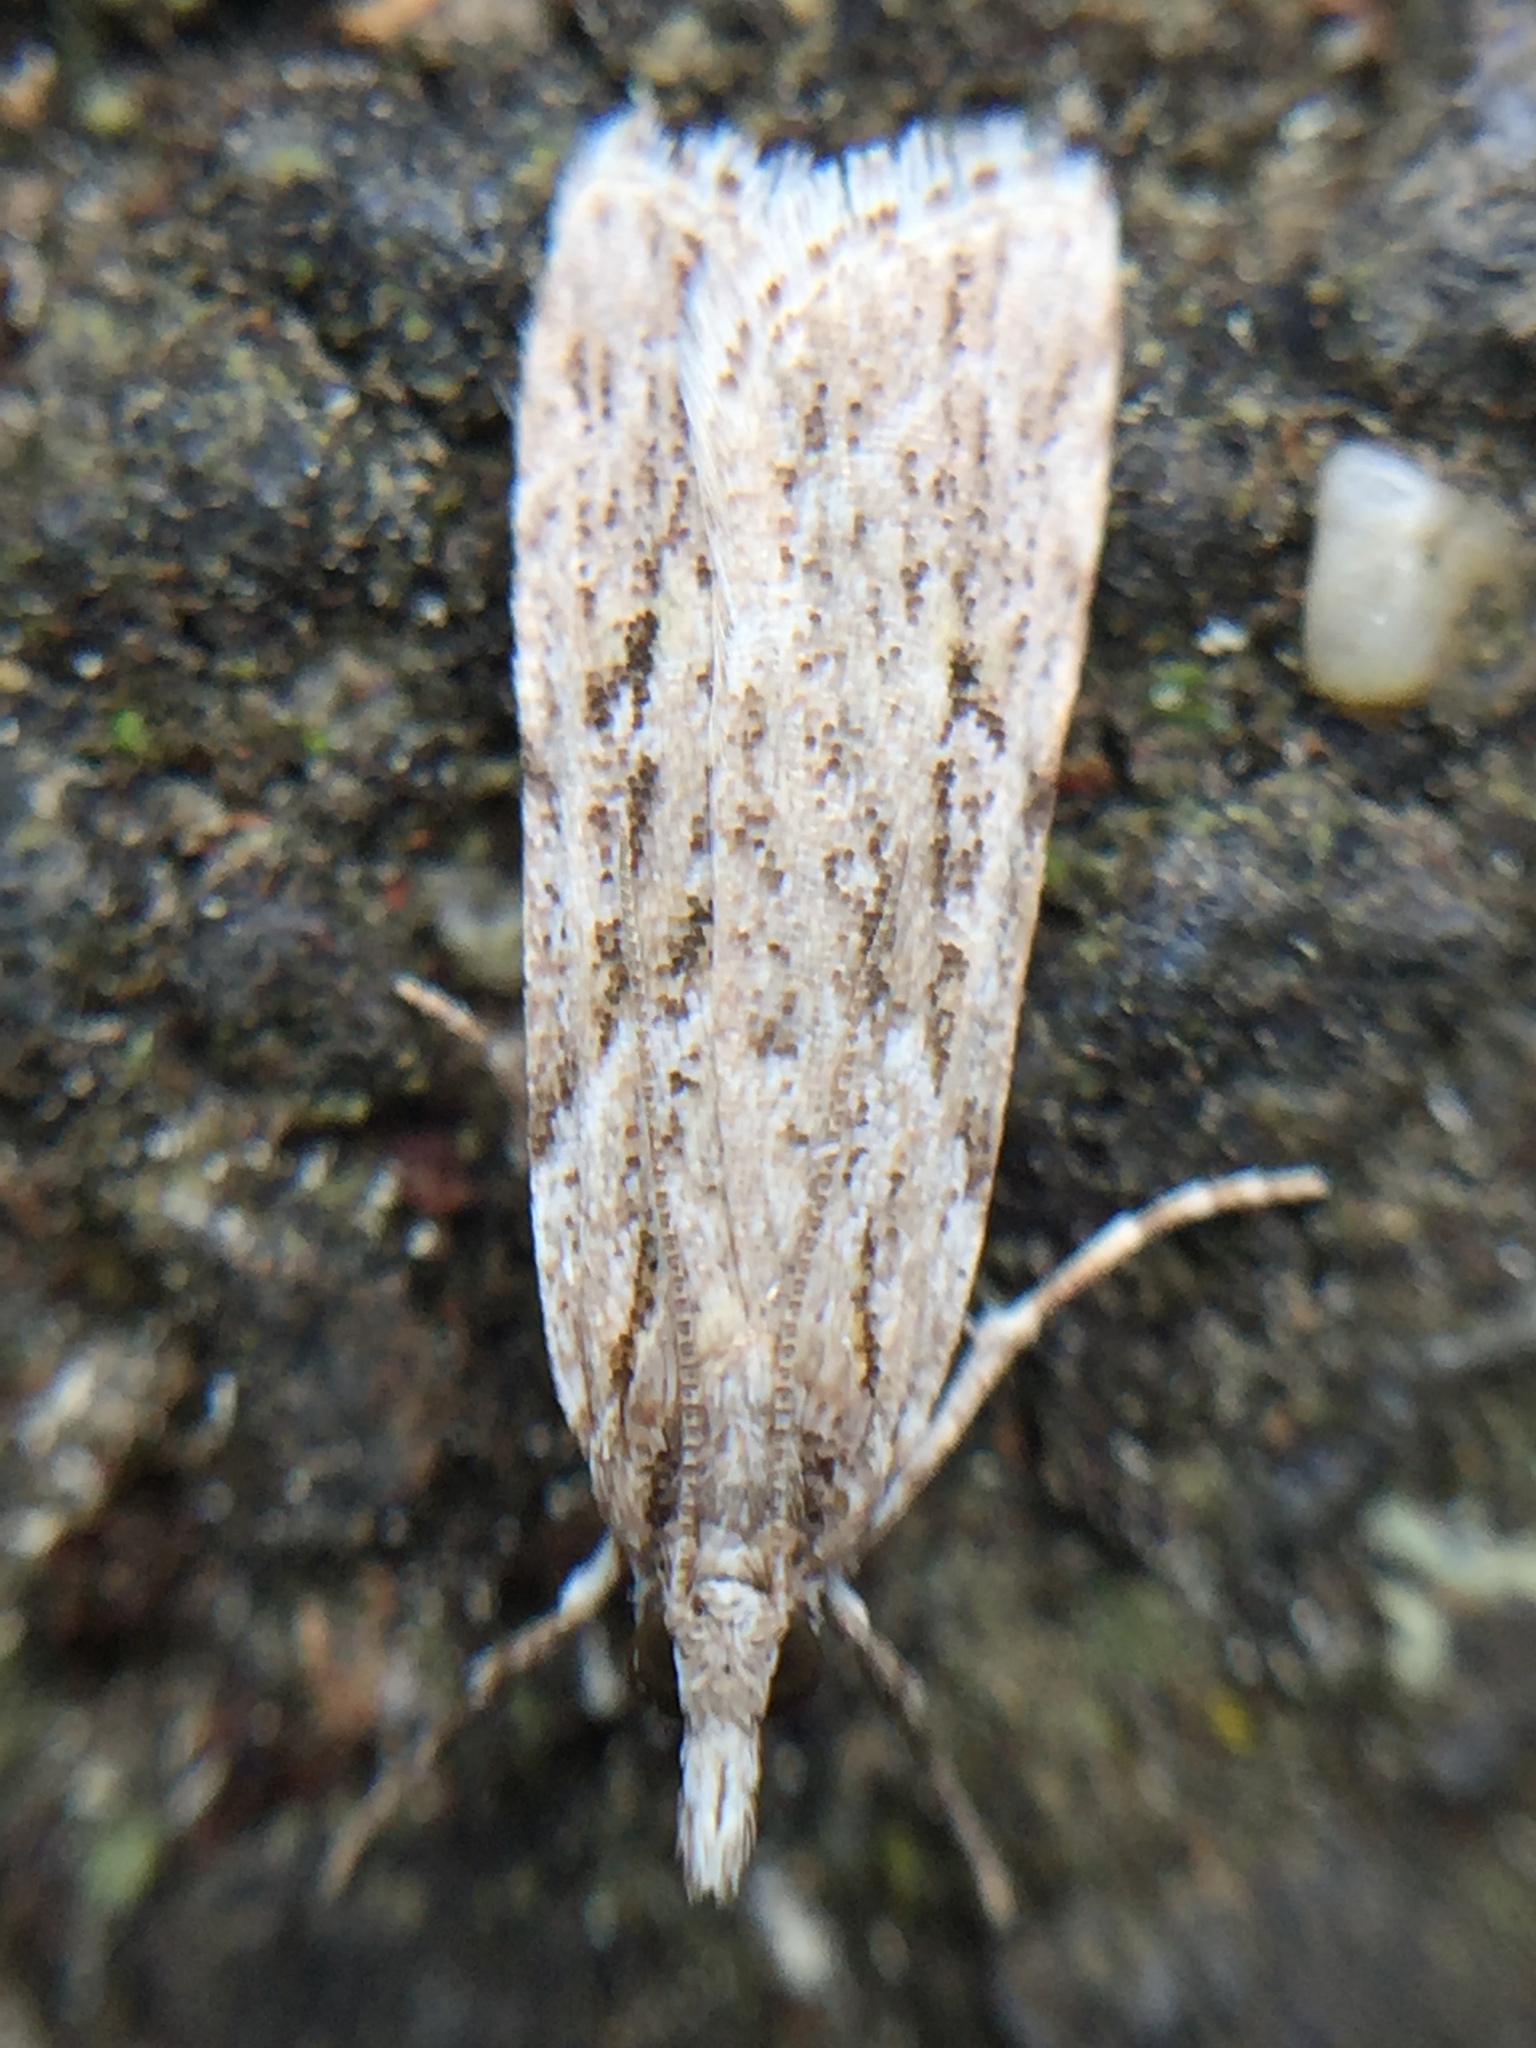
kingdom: Animalia
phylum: Arthropoda
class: Insecta
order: Lepidoptera
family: Crambidae
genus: Scoparia
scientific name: Scoparia chalicodes
